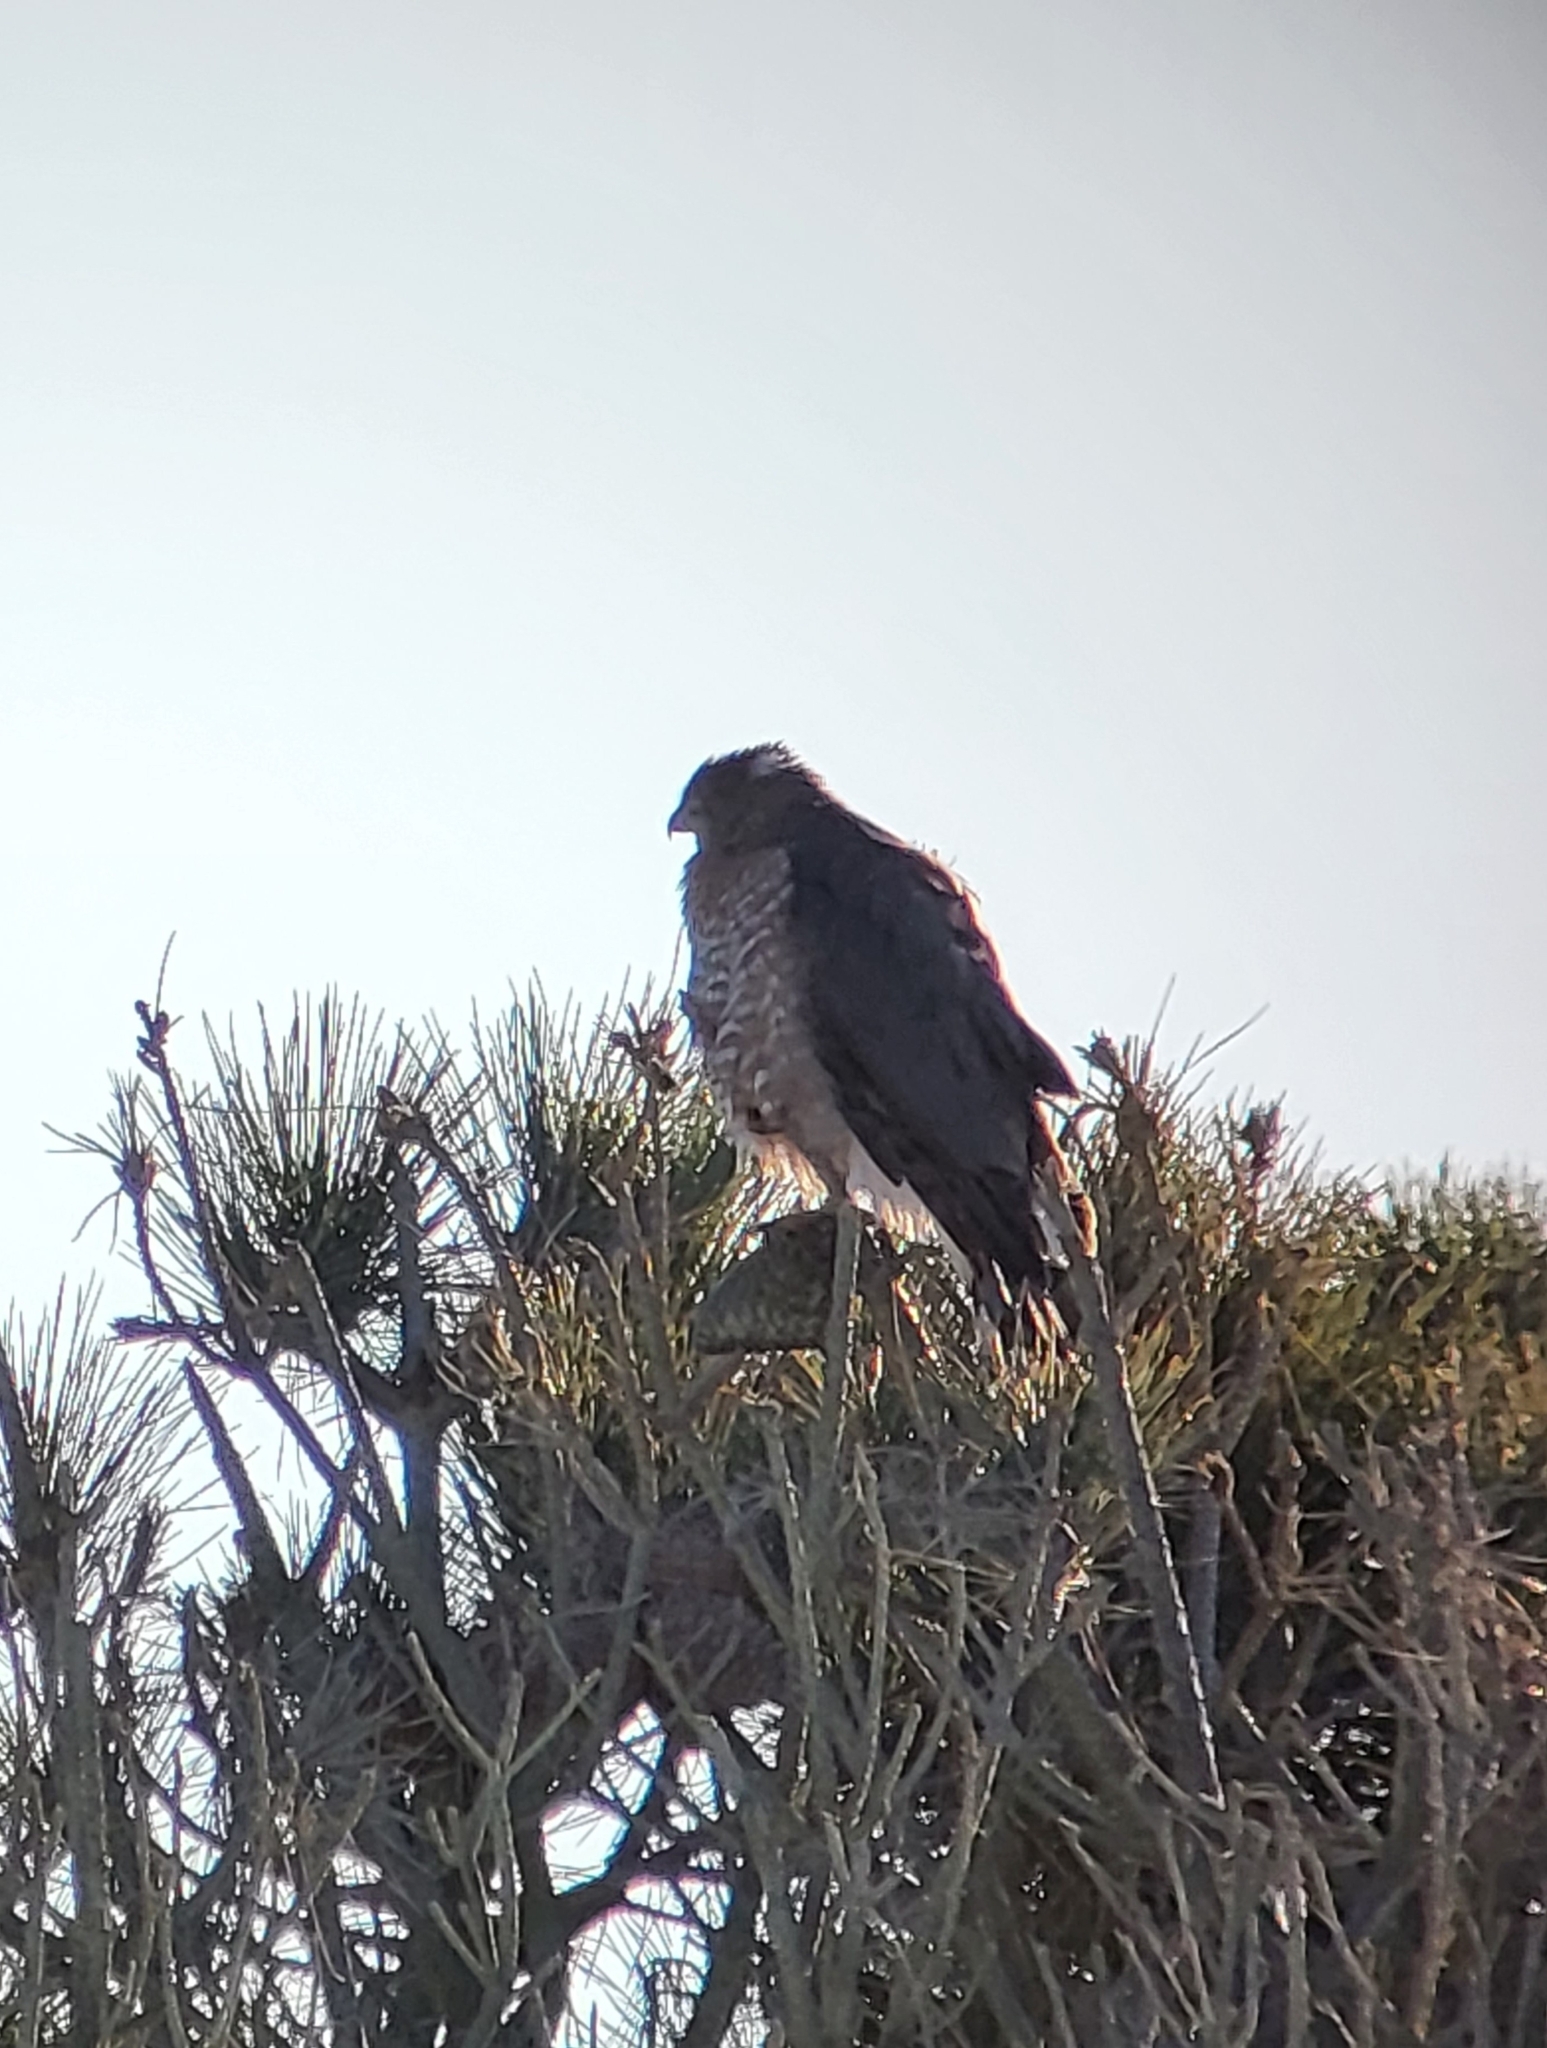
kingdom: Animalia
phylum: Chordata
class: Aves
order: Accipitriformes
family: Accipitridae
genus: Accipiter
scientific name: Accipiter cooperii
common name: Cooper's hawk
